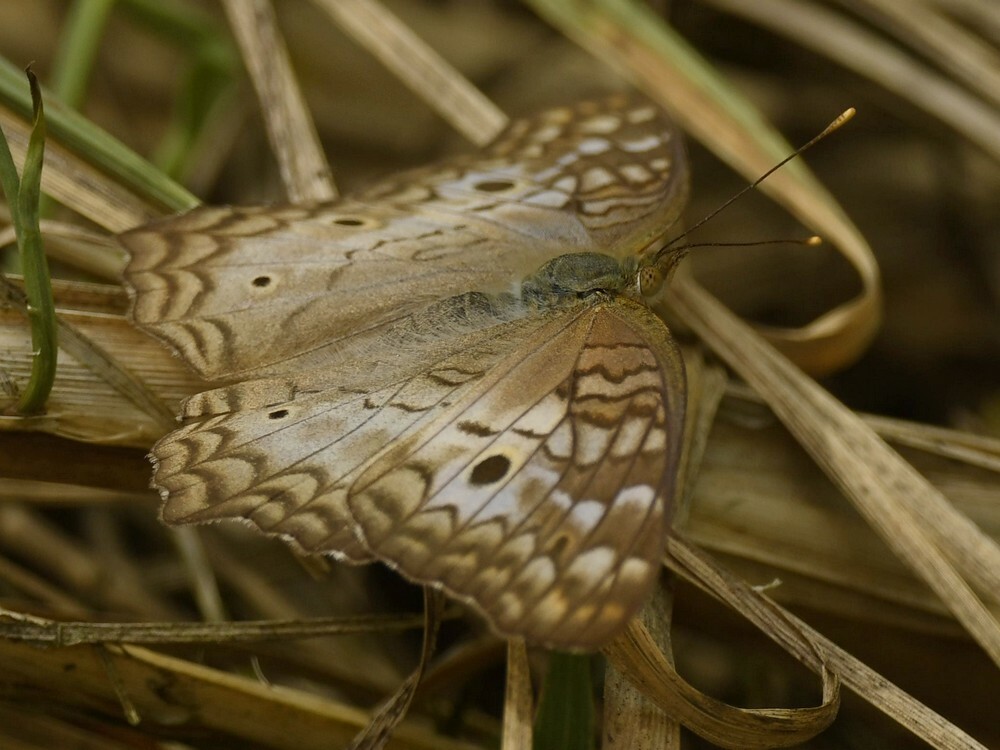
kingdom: Animalia
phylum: Arthropoda
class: Insecta
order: Lepidoptera
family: Nymphalidae
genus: Anartia
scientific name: Anartia jatrophae
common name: White peacock
